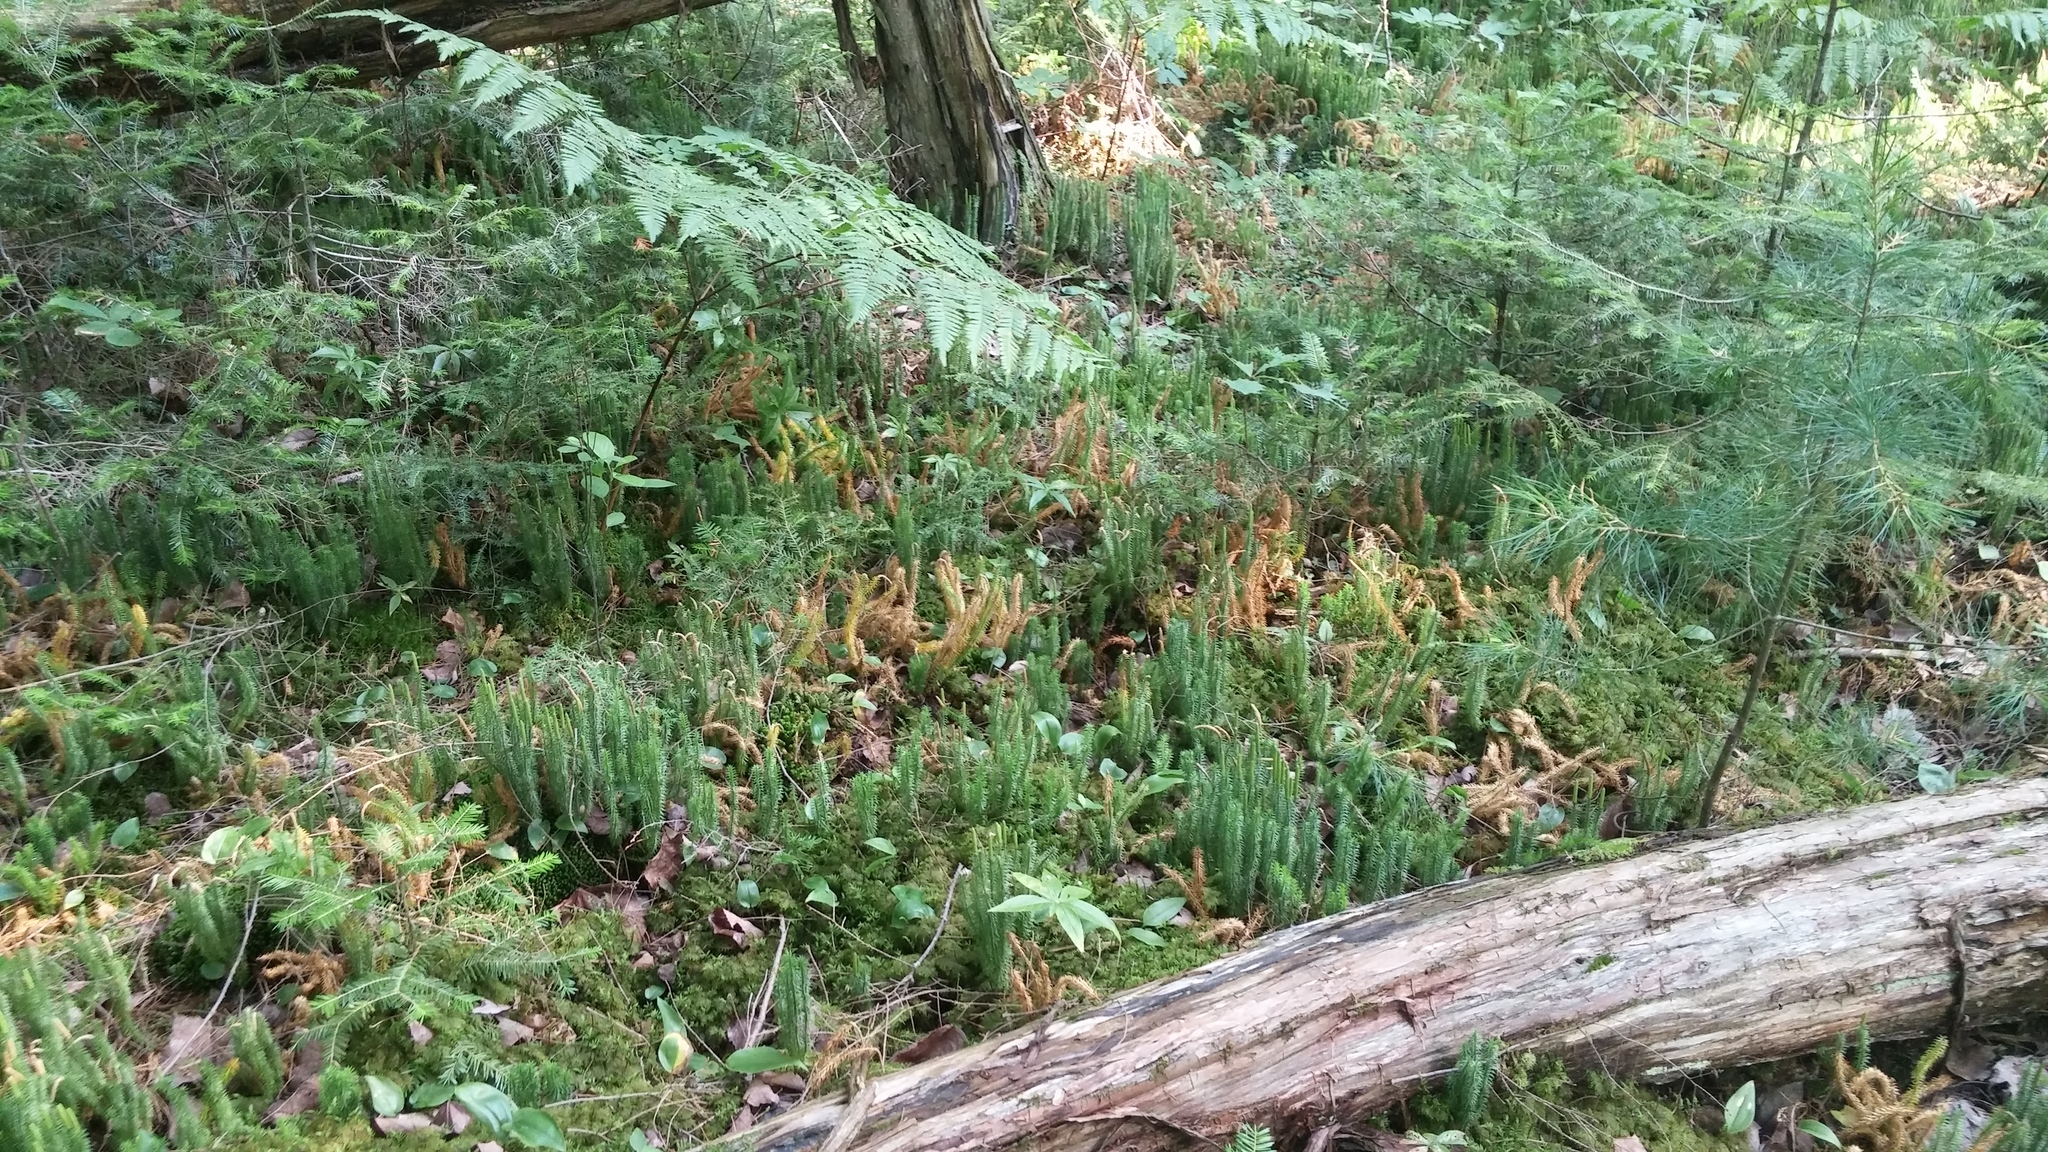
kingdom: Plantae
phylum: Tracheophyta
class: Lycopodiopsida
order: Lycopodiales
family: Lycopodiaceae
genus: Spinulum
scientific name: Spinulum annotinum
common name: Interrupted club-moss
